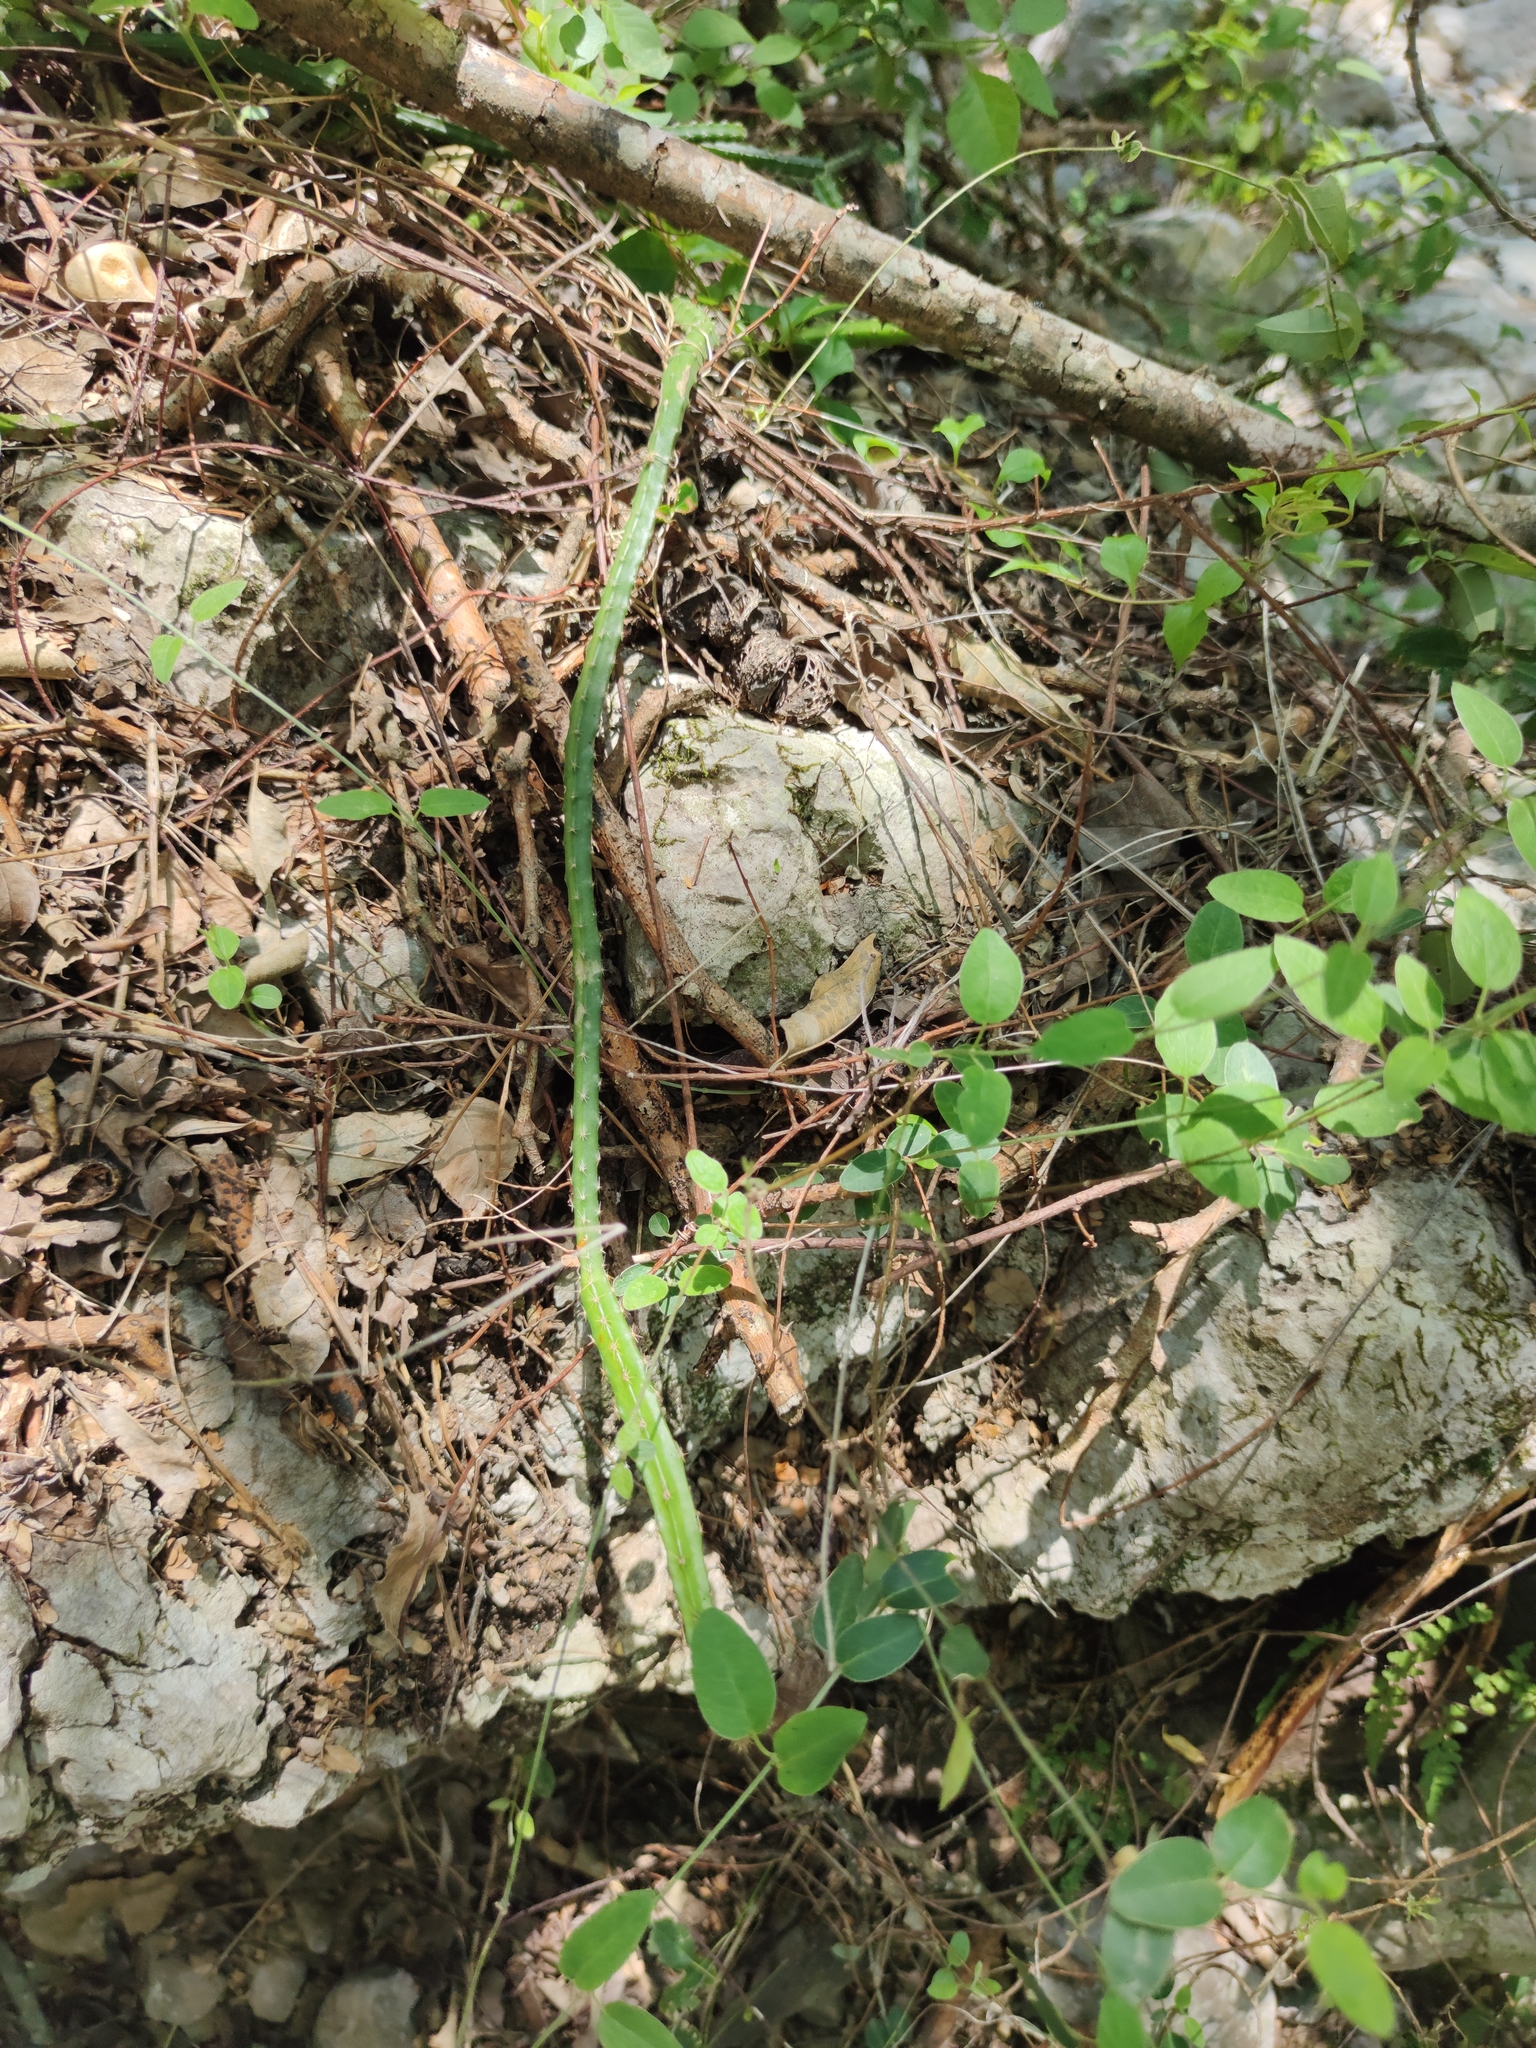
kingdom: Plantae
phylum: Tracheophyta
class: Magnoliopsida
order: Caryophyllales
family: Cactaceae
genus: Selenicereus
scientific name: Selenicereus spinulosus
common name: Nightblooming cereus
